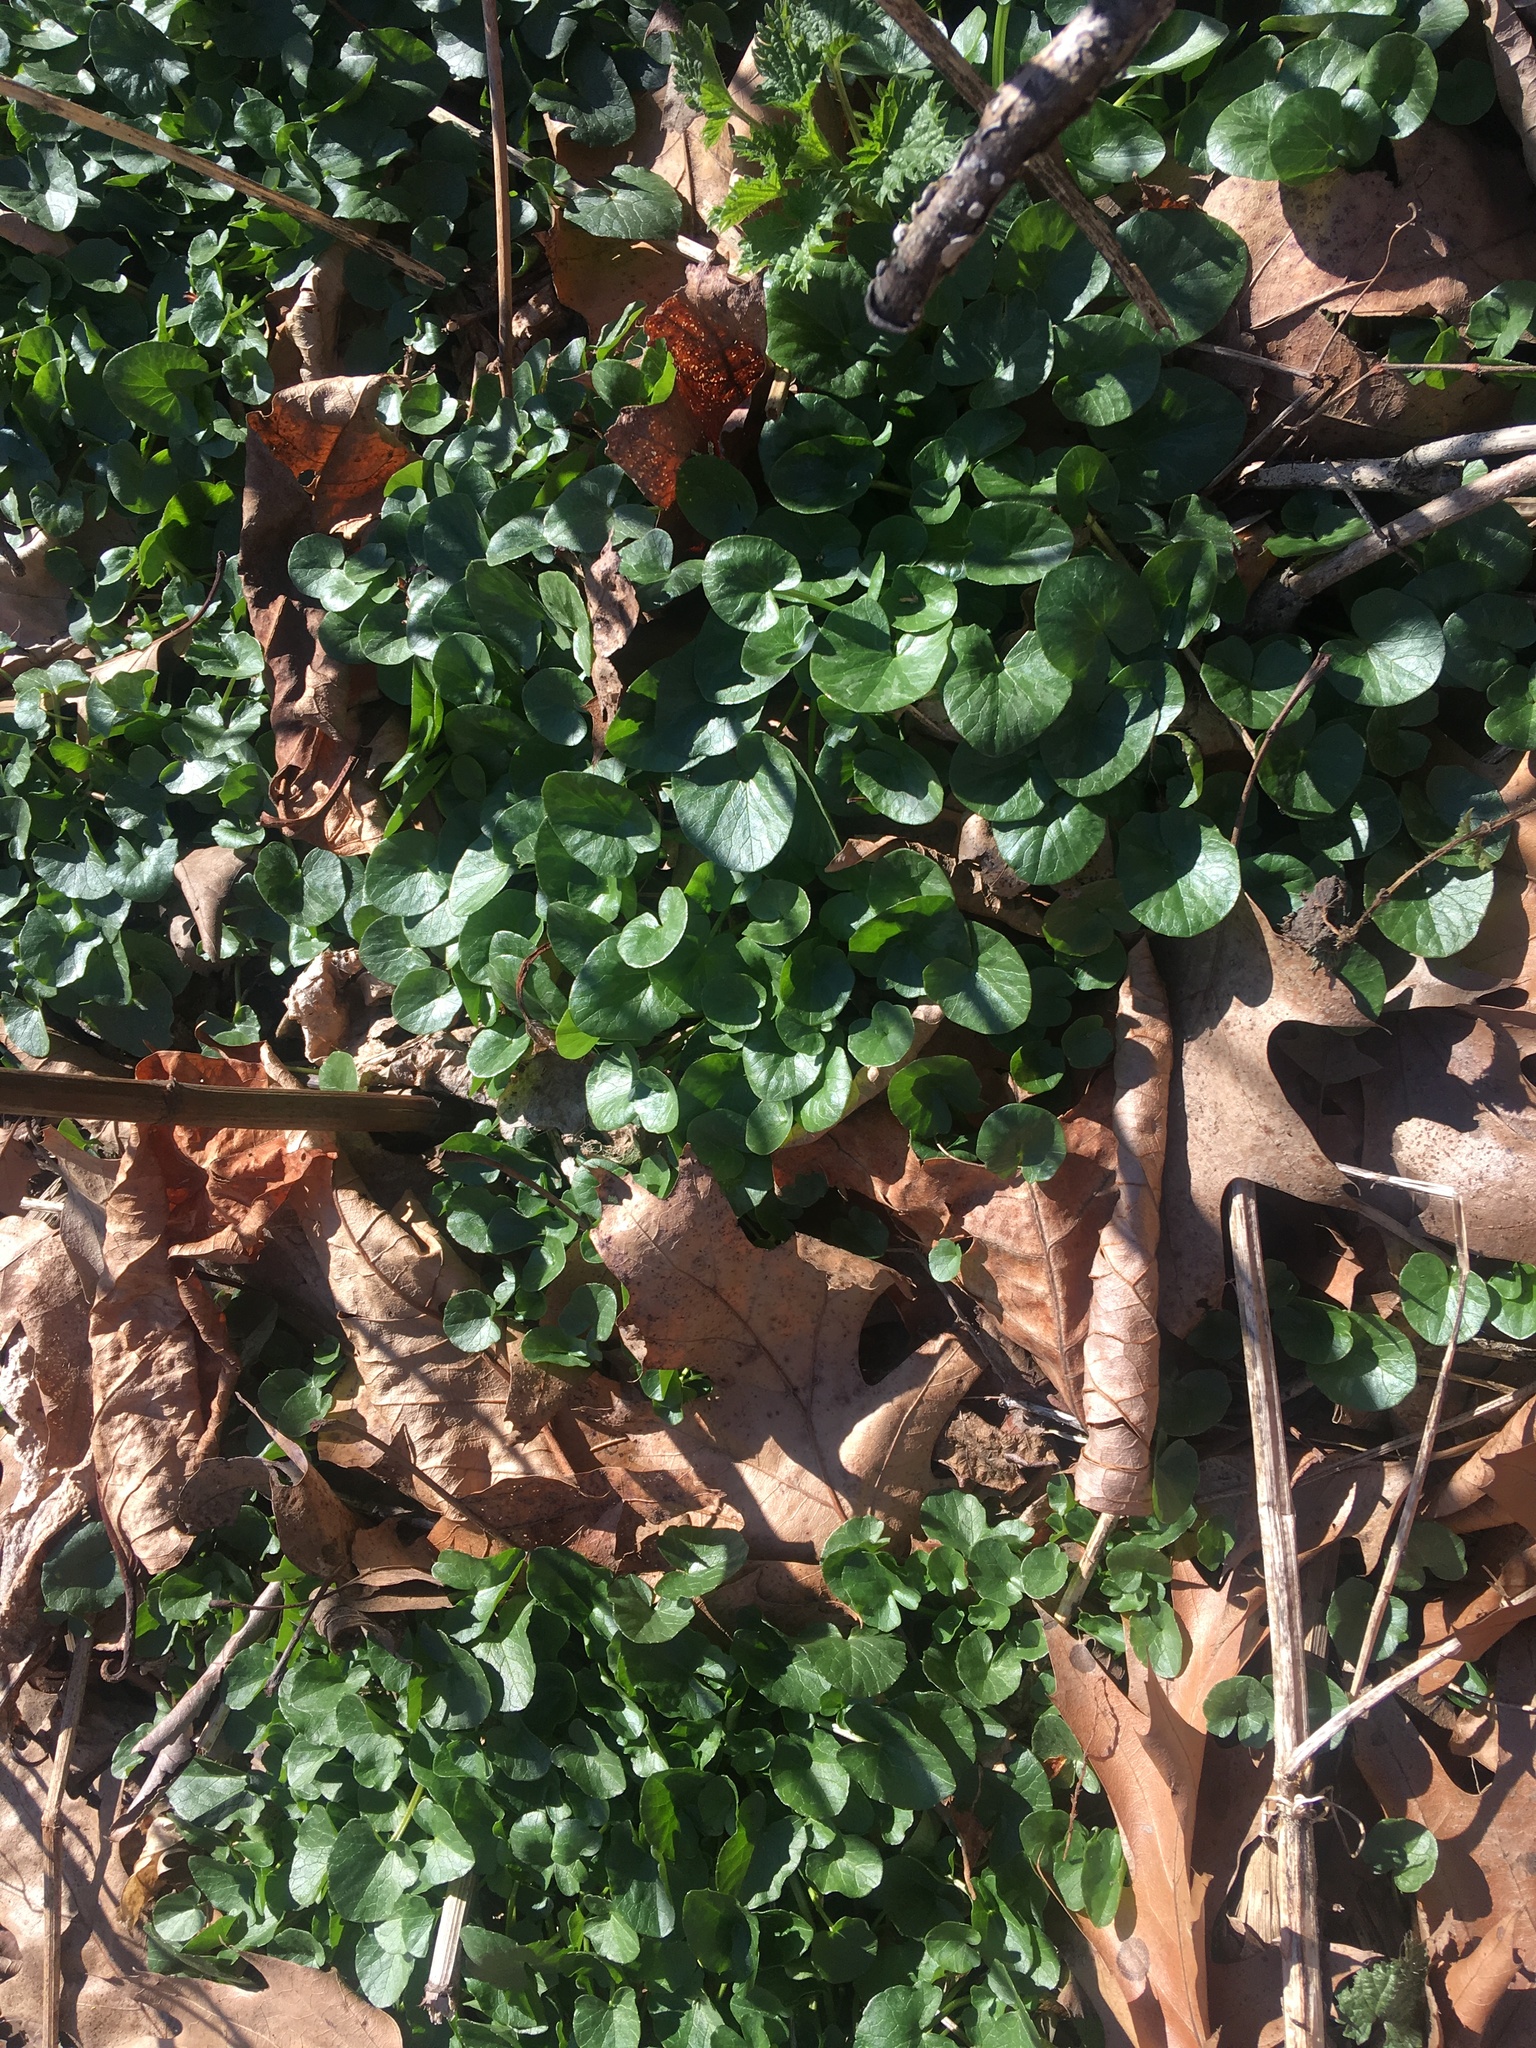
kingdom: Plantae
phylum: Tracheophyta
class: Magnoliopsida
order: Ranunculales
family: Ranunculaceae
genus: Ficaria
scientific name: Ficaria verna
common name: Lesser celandine
